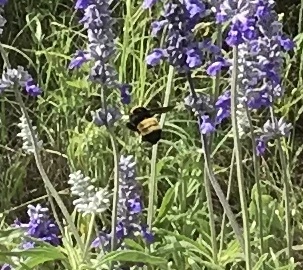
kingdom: Animalia
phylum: Arthropoda
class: Insecta
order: Hymenoptera
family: Apidae
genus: Bombus
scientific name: Bombus pensylvanicus
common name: Bumble bee
